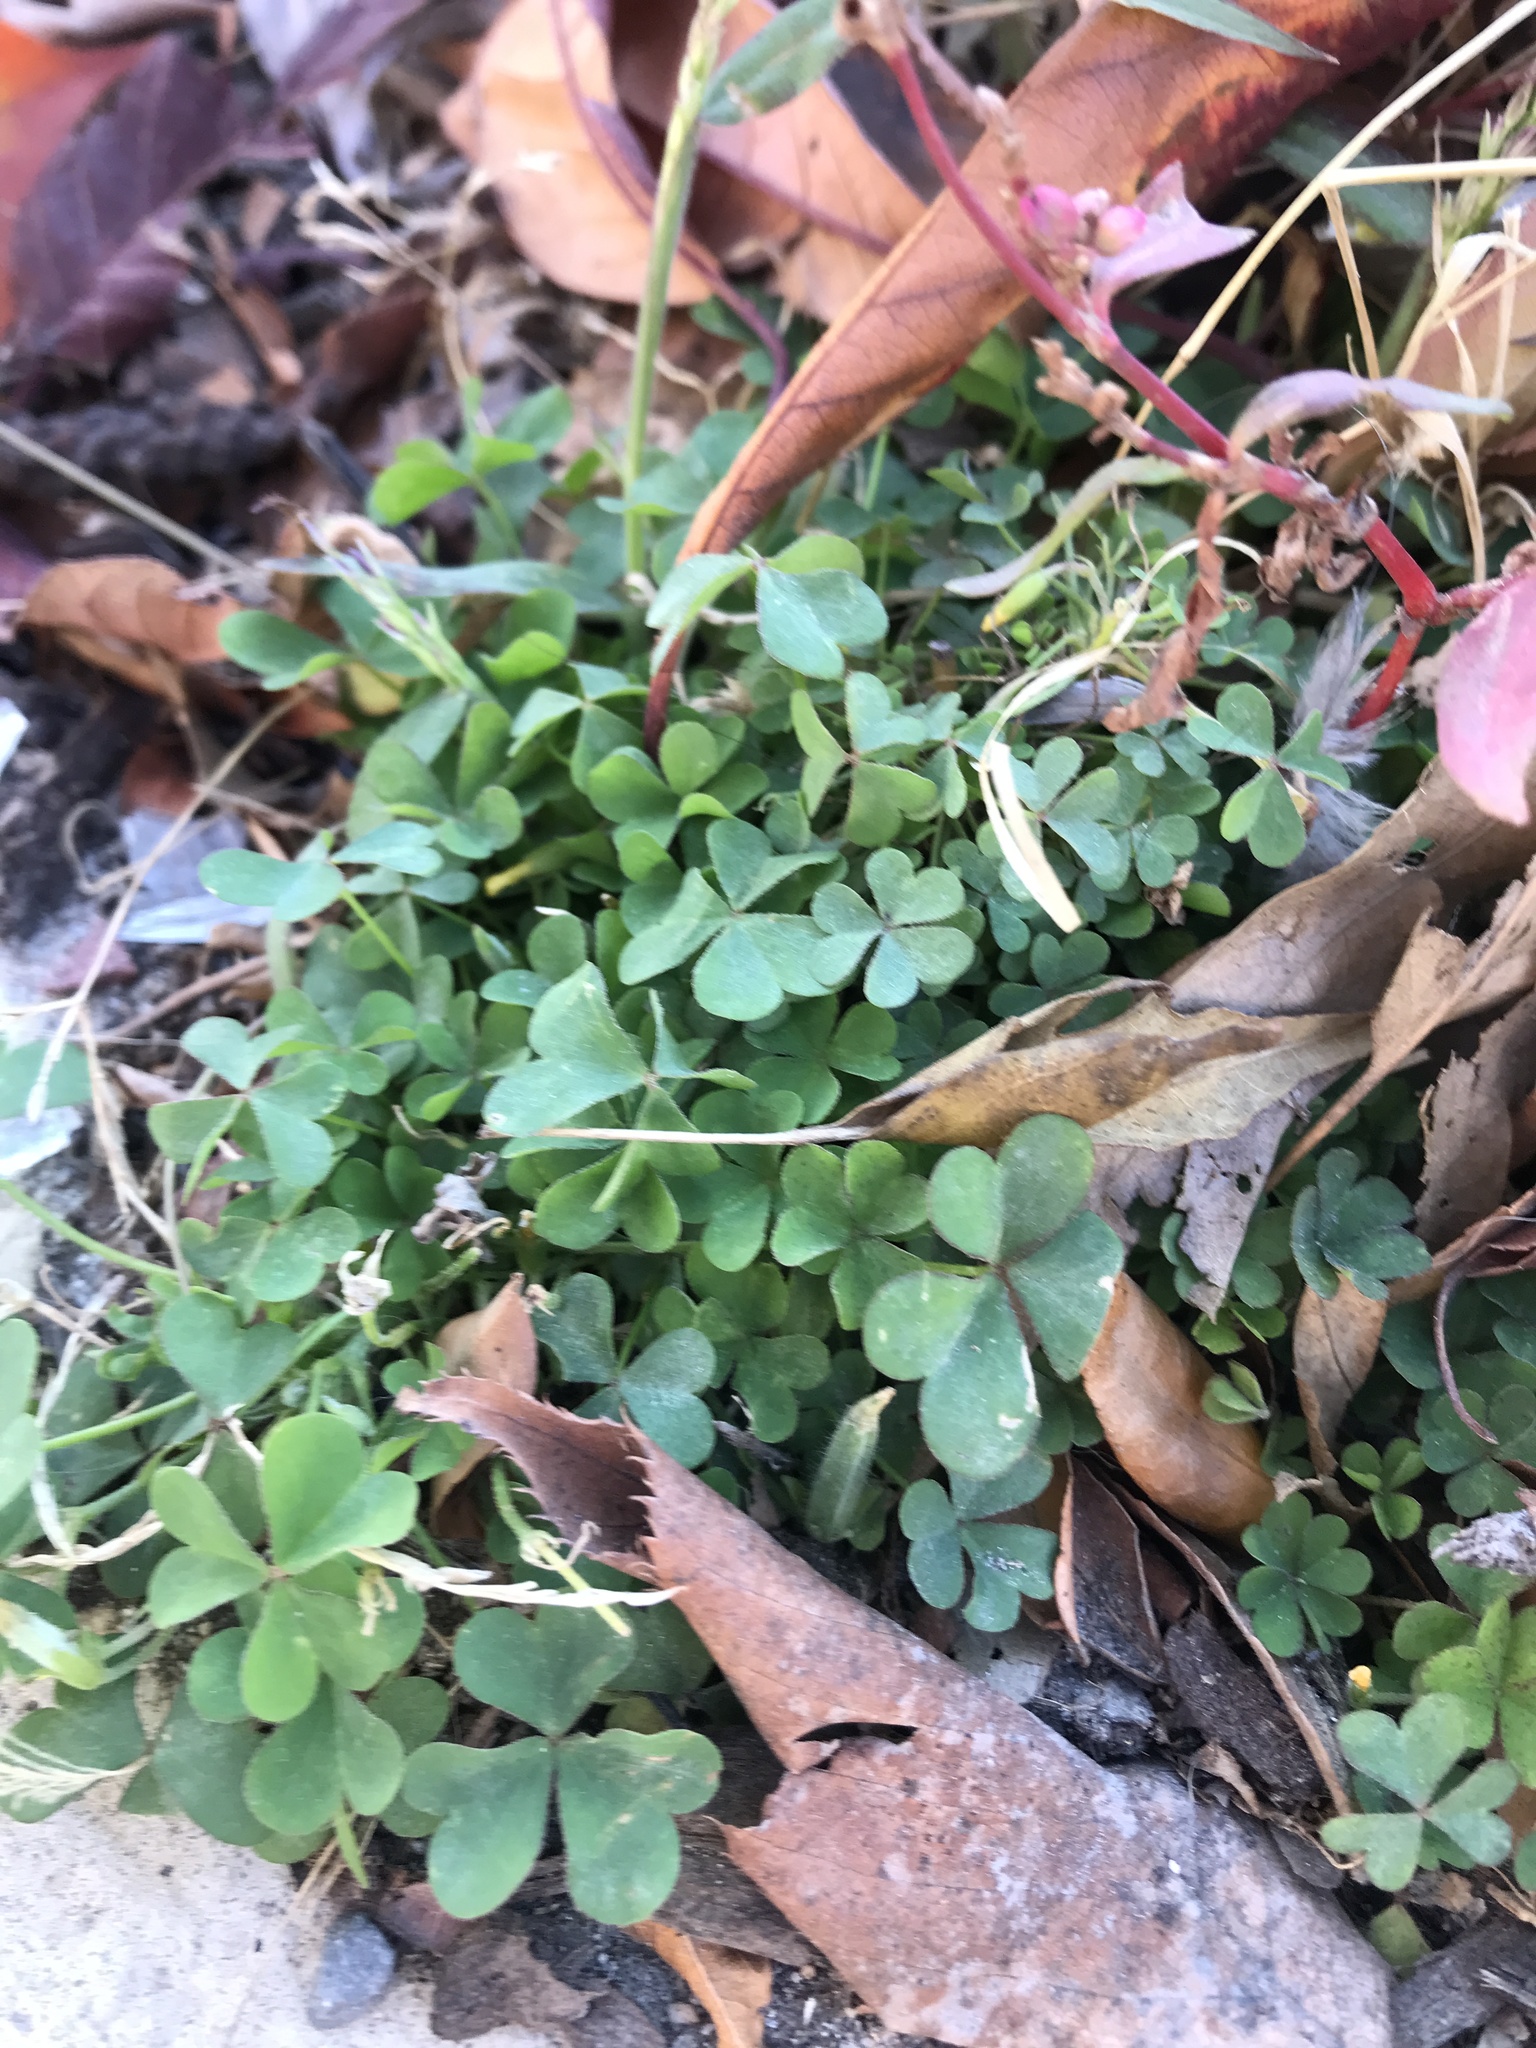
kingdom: Plantae
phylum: Tracheophyta
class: Magnoliopsida
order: Oxalidales
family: Oxalidaceae
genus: Oxalis
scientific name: Oxalis corniculata
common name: Procumbent yellow-sorrel
